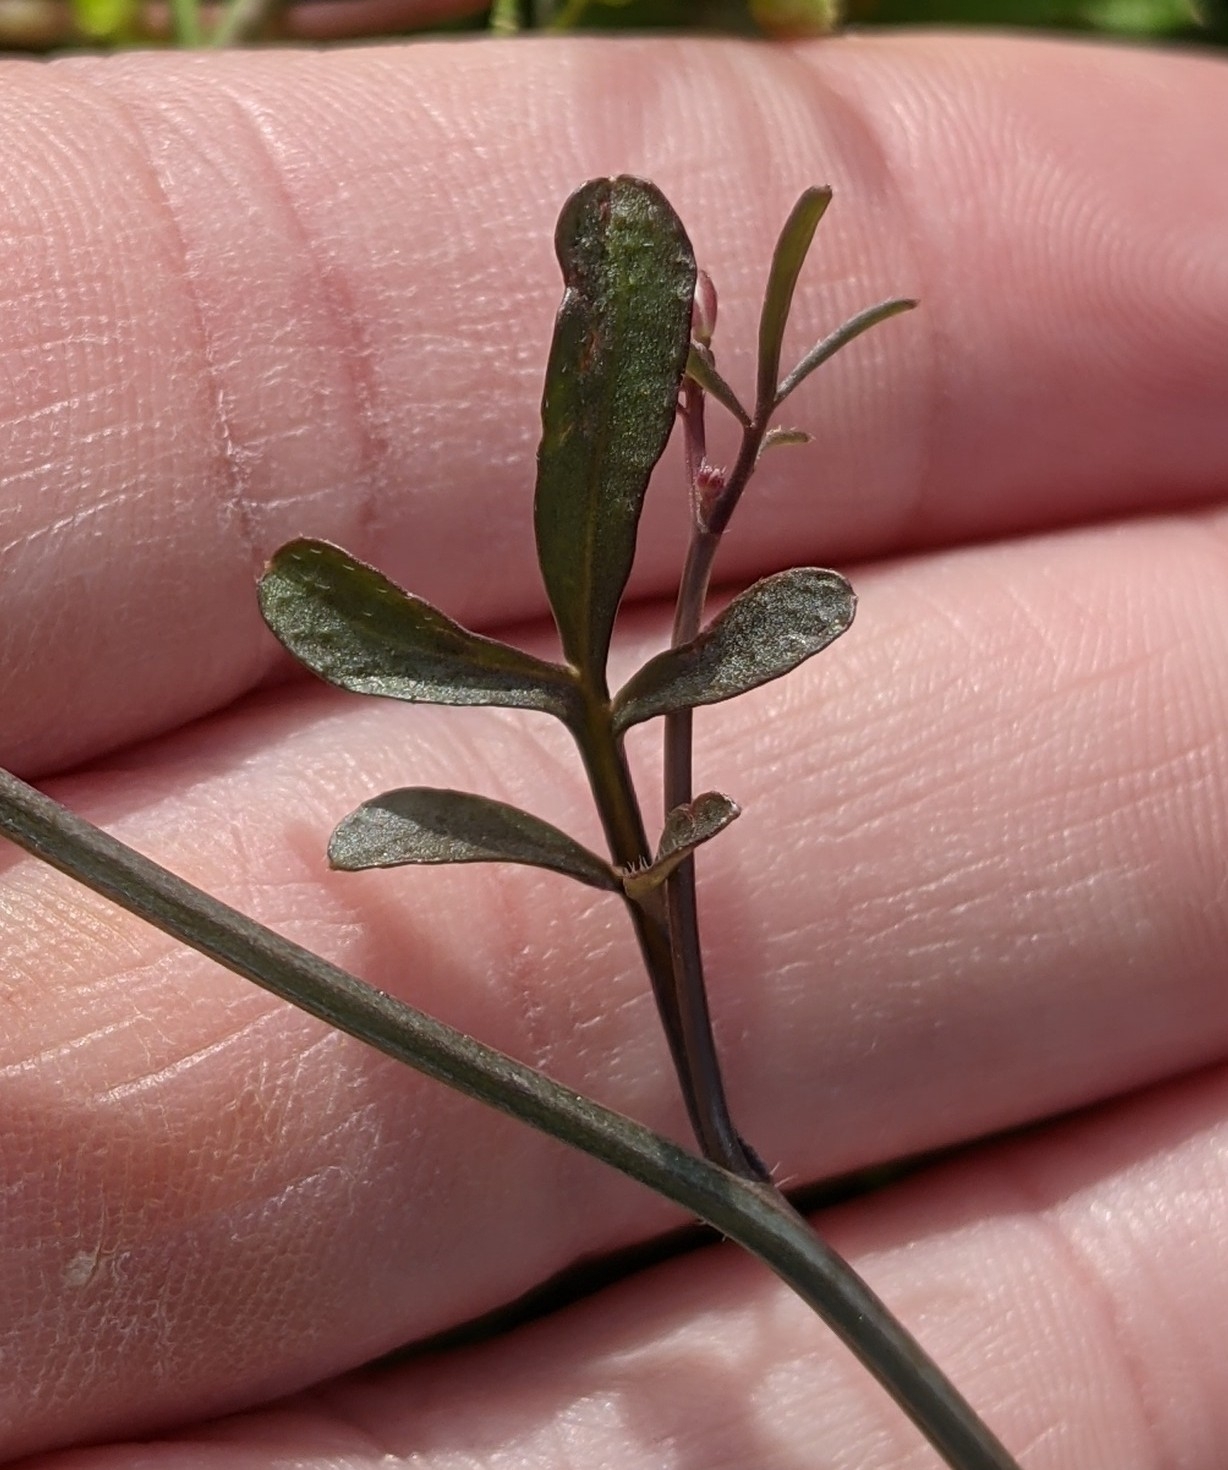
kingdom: Plantae
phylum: Tracheophyta
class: Magnoliopsida
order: Brassicales
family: Brassicaceae
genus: Cardamine
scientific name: Cardamine hirsuta
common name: Hairy bittercress
